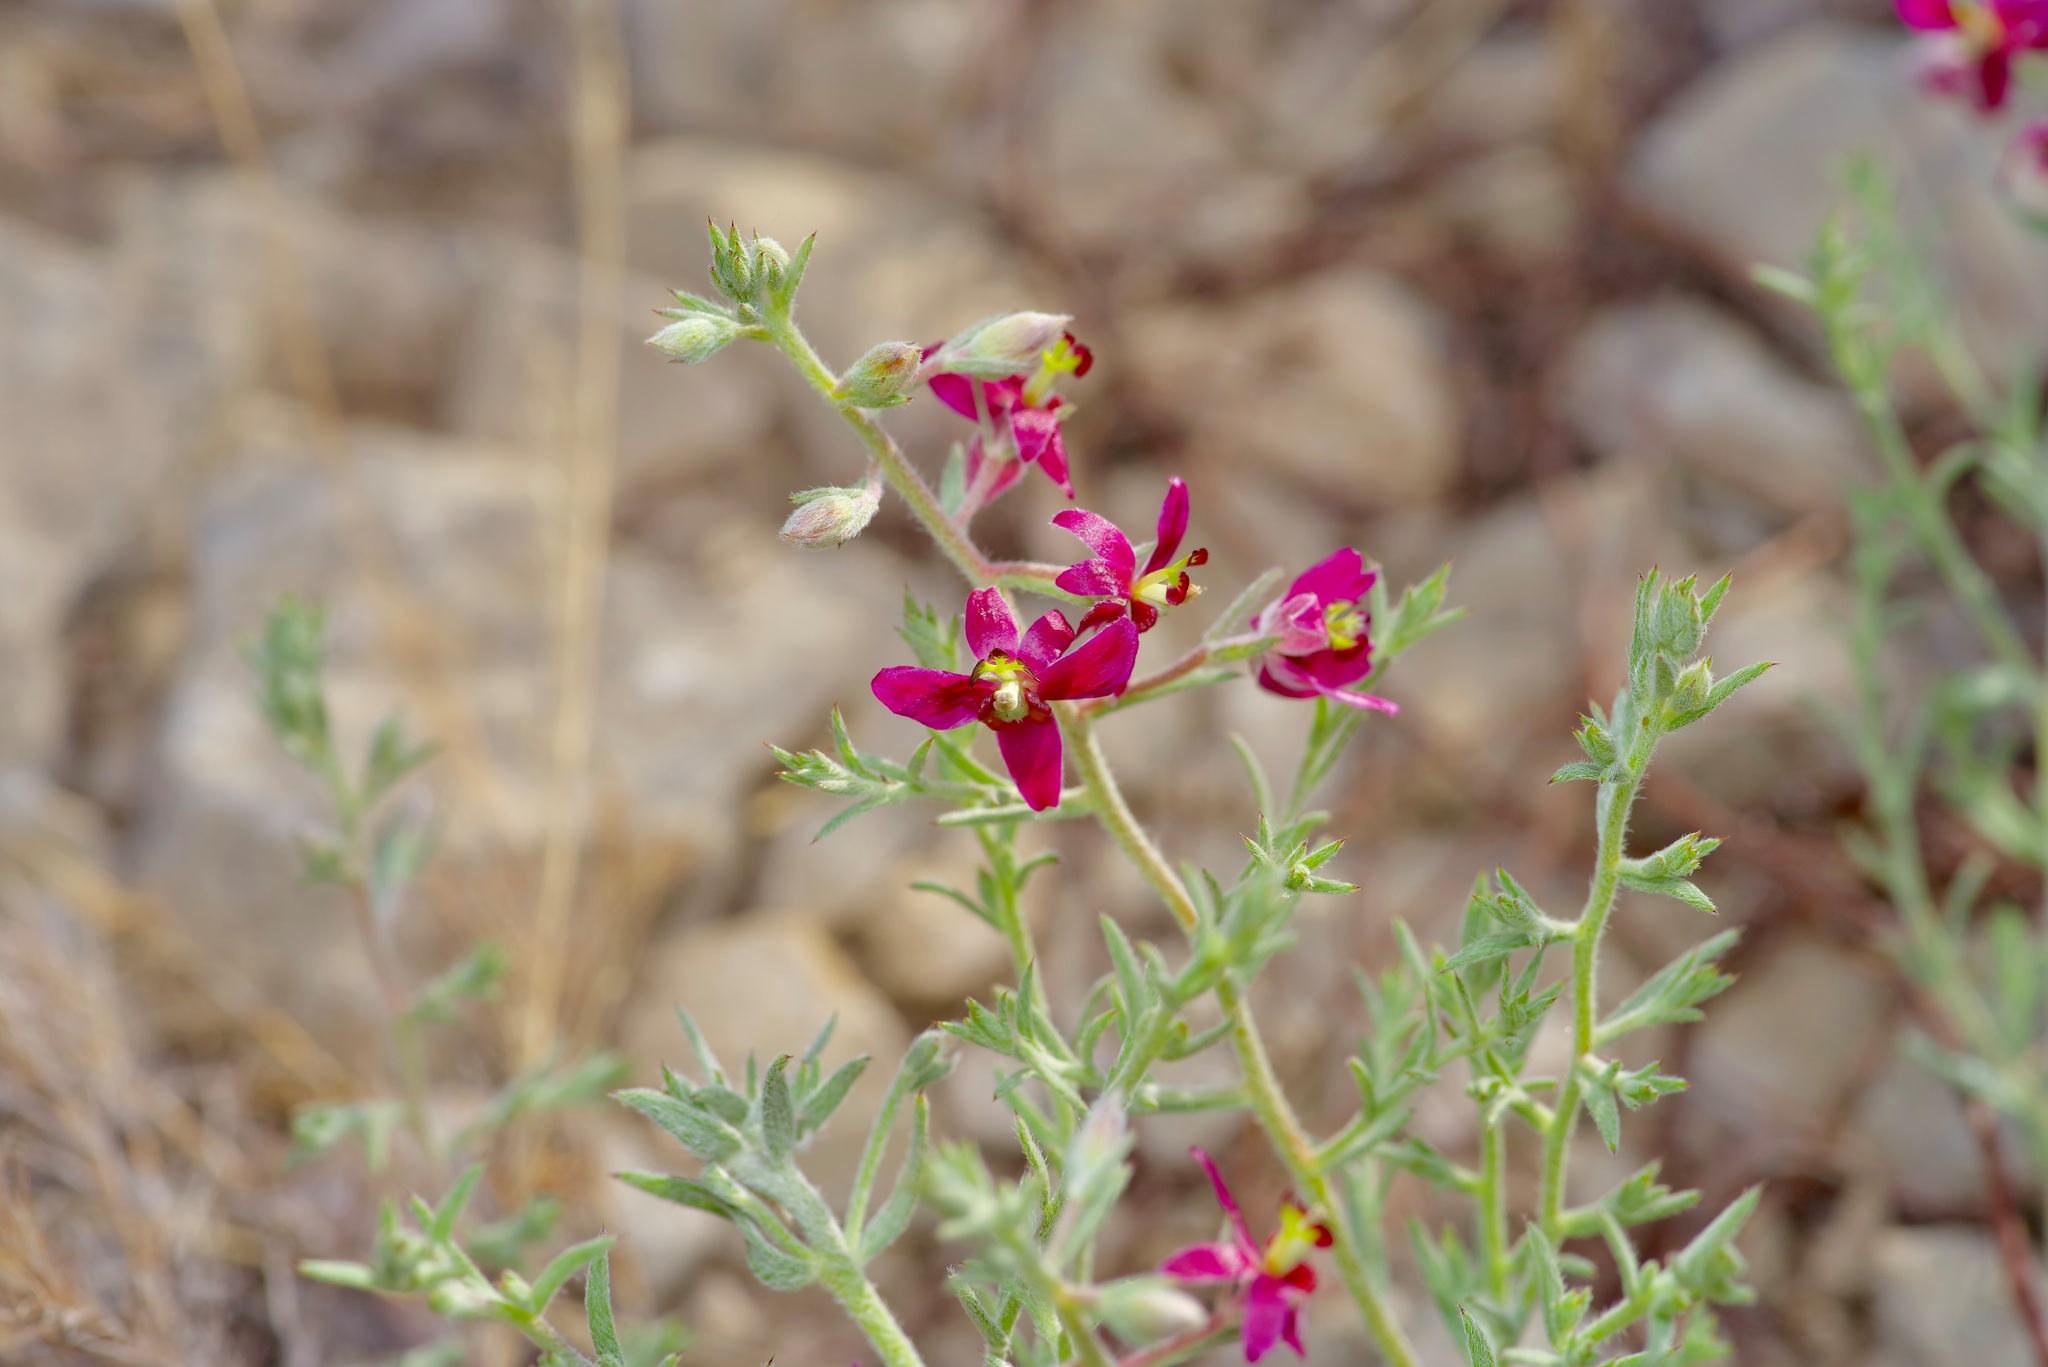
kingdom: Plantae
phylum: Tracheophyta
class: Magnoliopsida
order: Zygophyllales
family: Krameriaceae
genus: Krameria
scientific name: Krameria lanceolata
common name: Ratany
